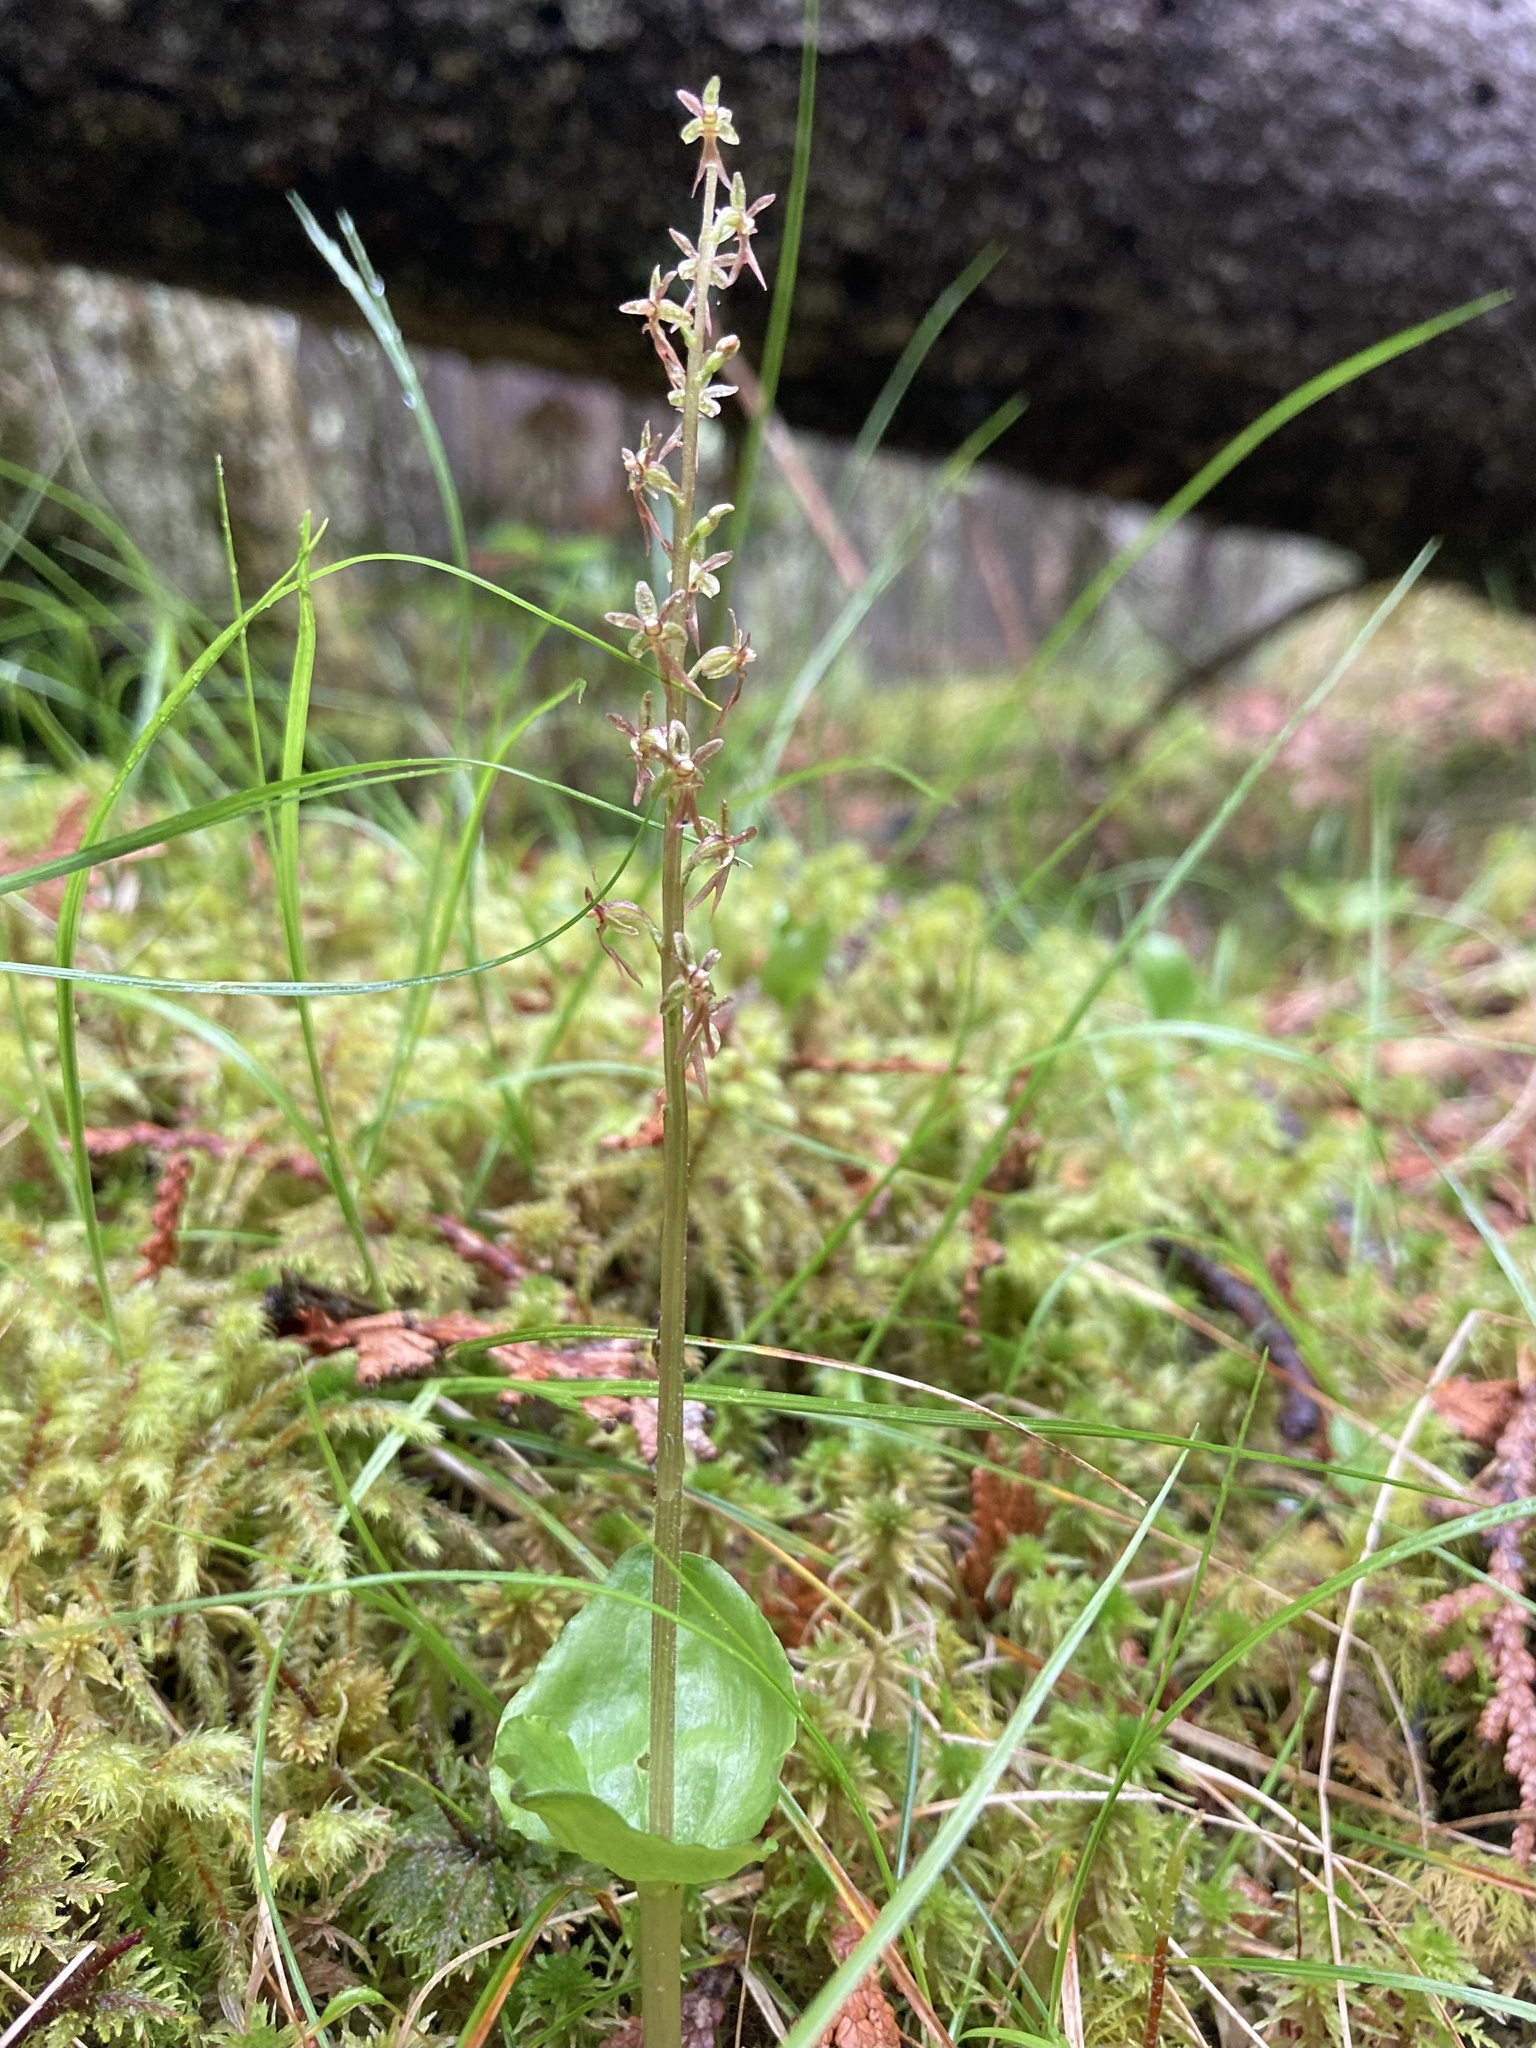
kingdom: Plantae
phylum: Tracheophyta
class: Liliopsida
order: Asparagales
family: Orchidaceae
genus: Neottia
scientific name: Neottia cordata
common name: Lesser twayblade
